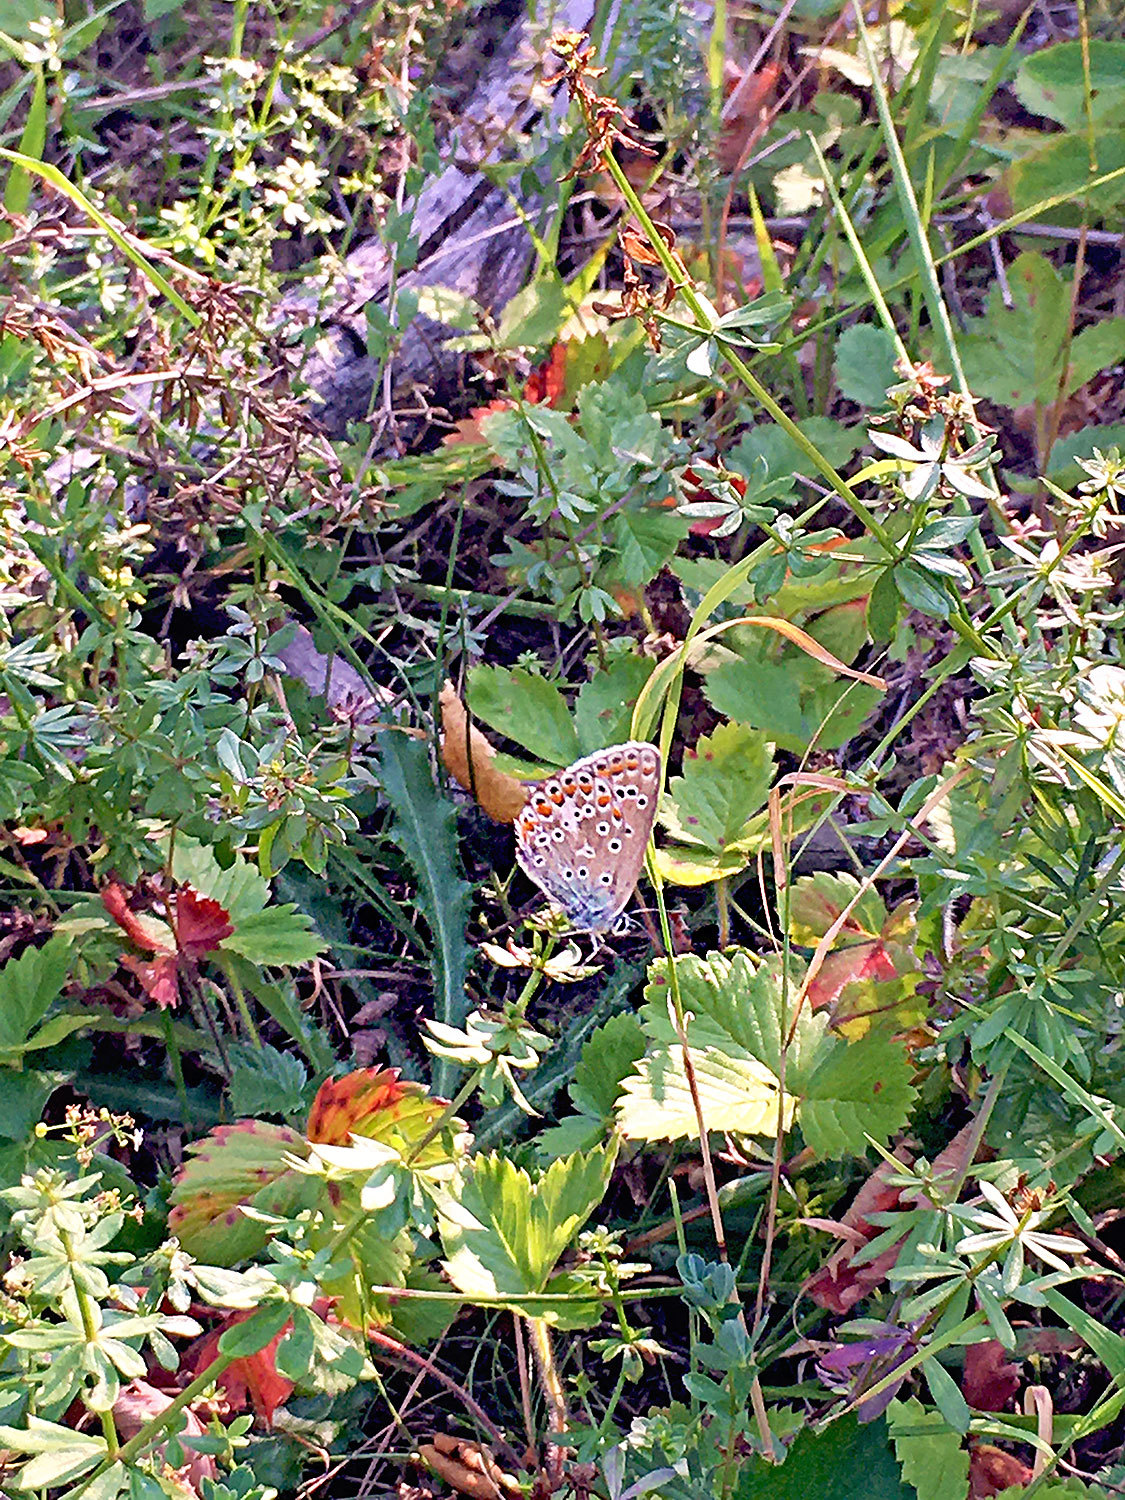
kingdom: Animalia
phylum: Arthropoda
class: Insecta
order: Lepidoptera
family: Lycaenidae
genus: Polyommatus
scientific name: Polyommatus icarus
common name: Common blue
